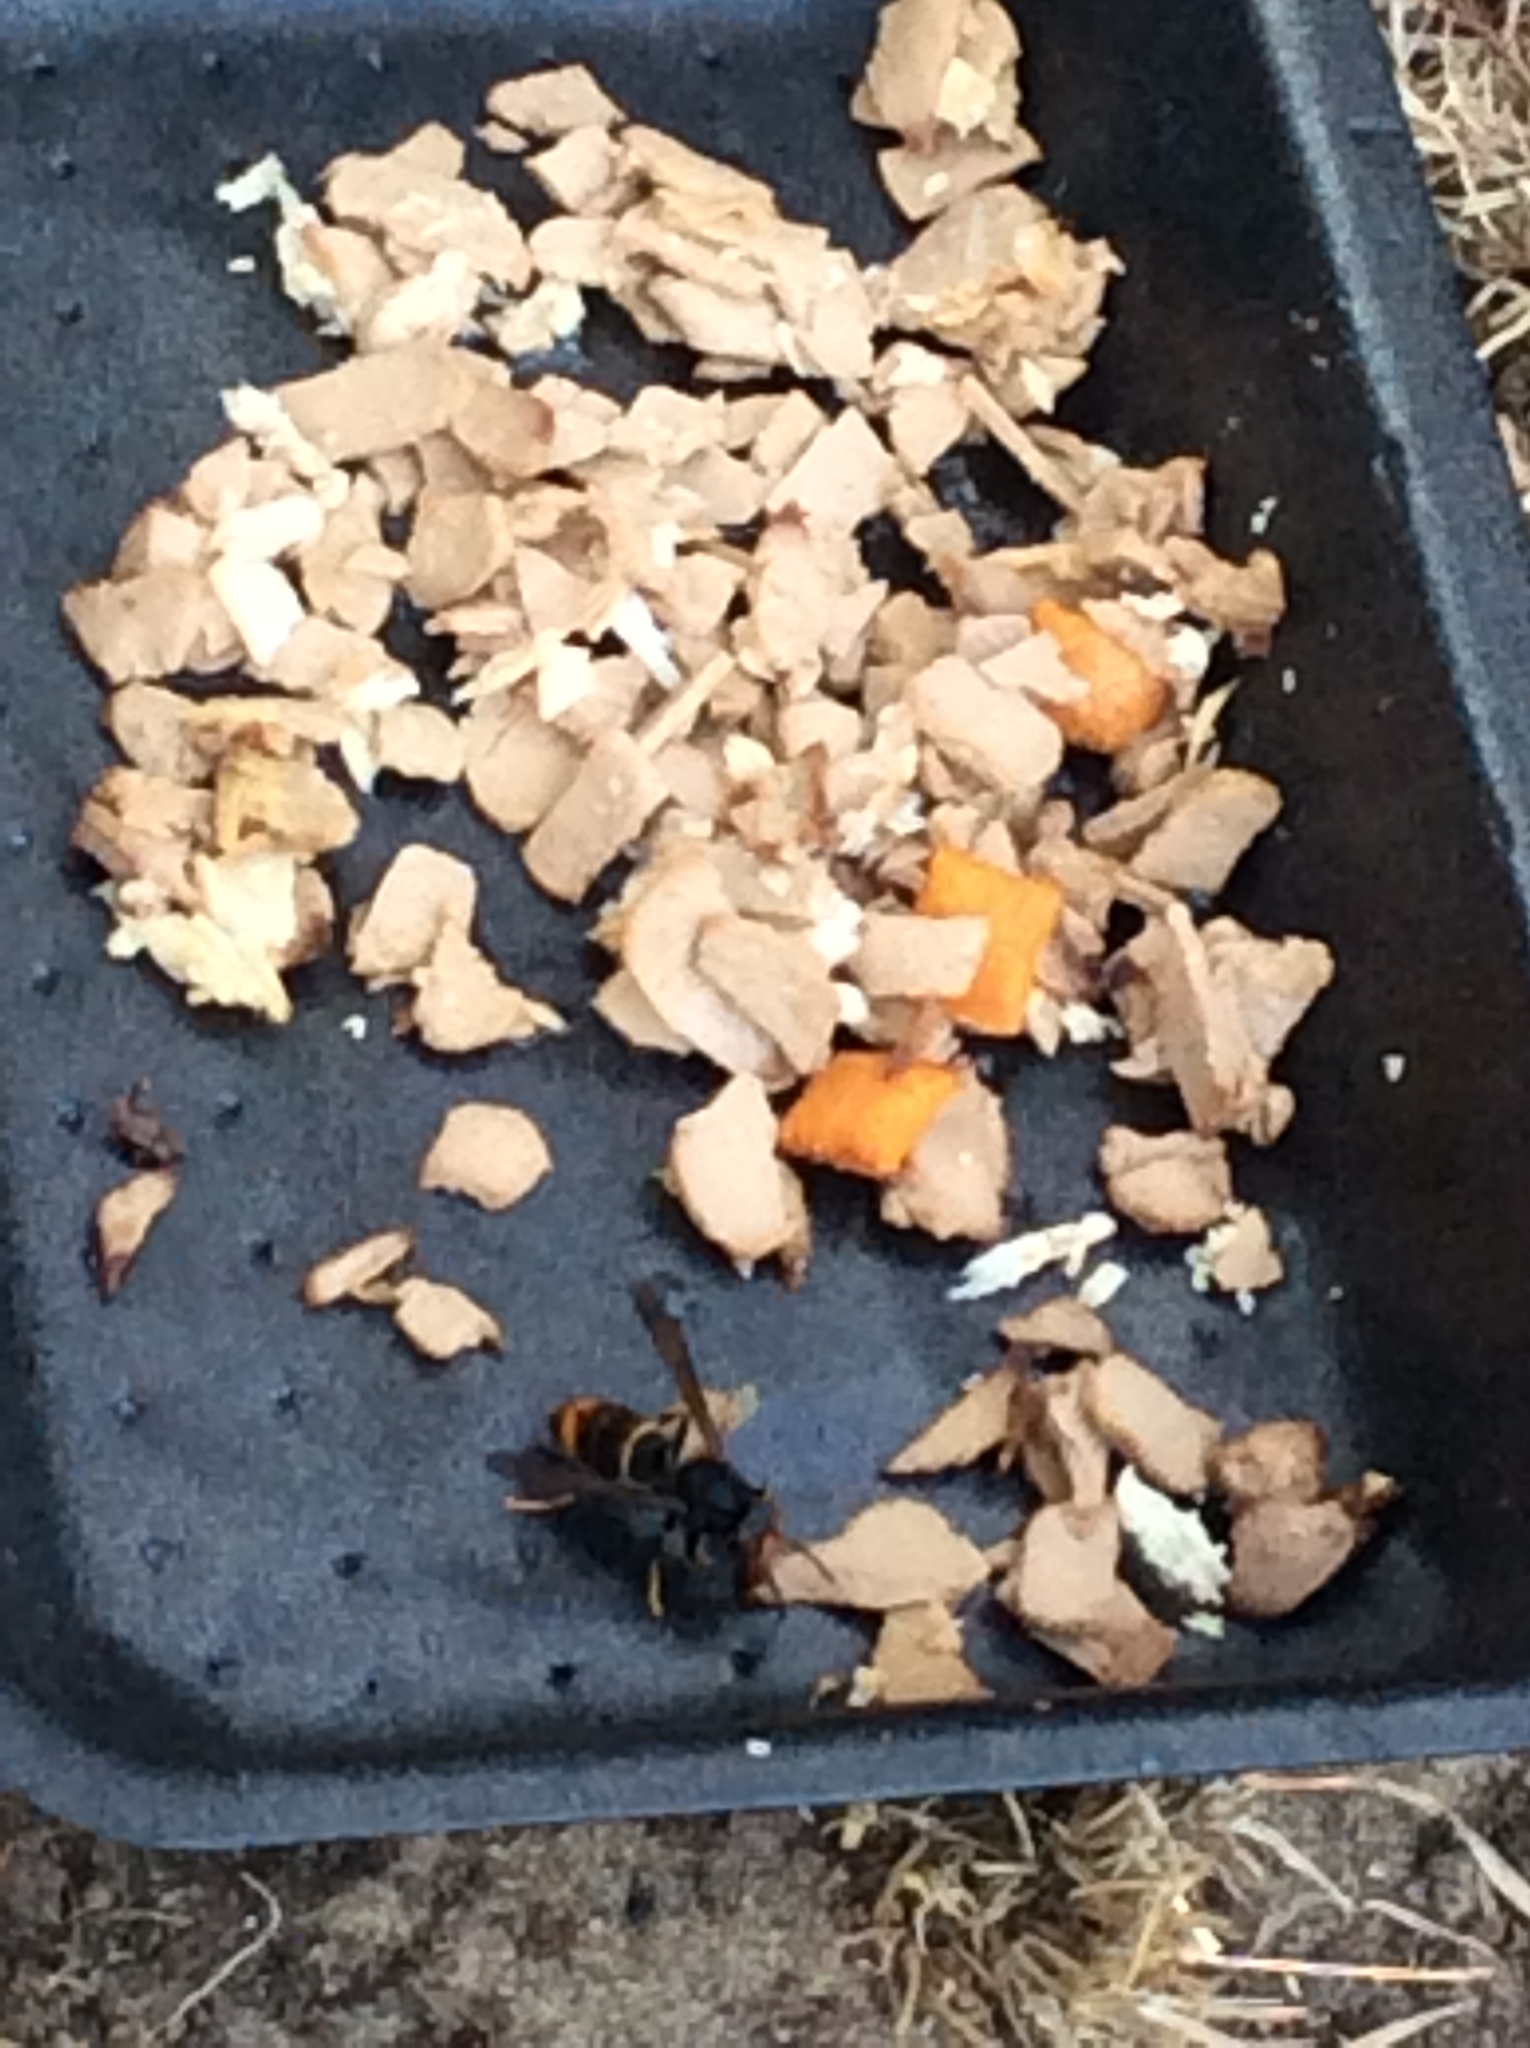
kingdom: Animalia
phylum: Arthropoda
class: Insecta
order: Hymenoptera
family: Vespidae
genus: Vespa
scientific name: Vespa velutina
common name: Asian hornet
